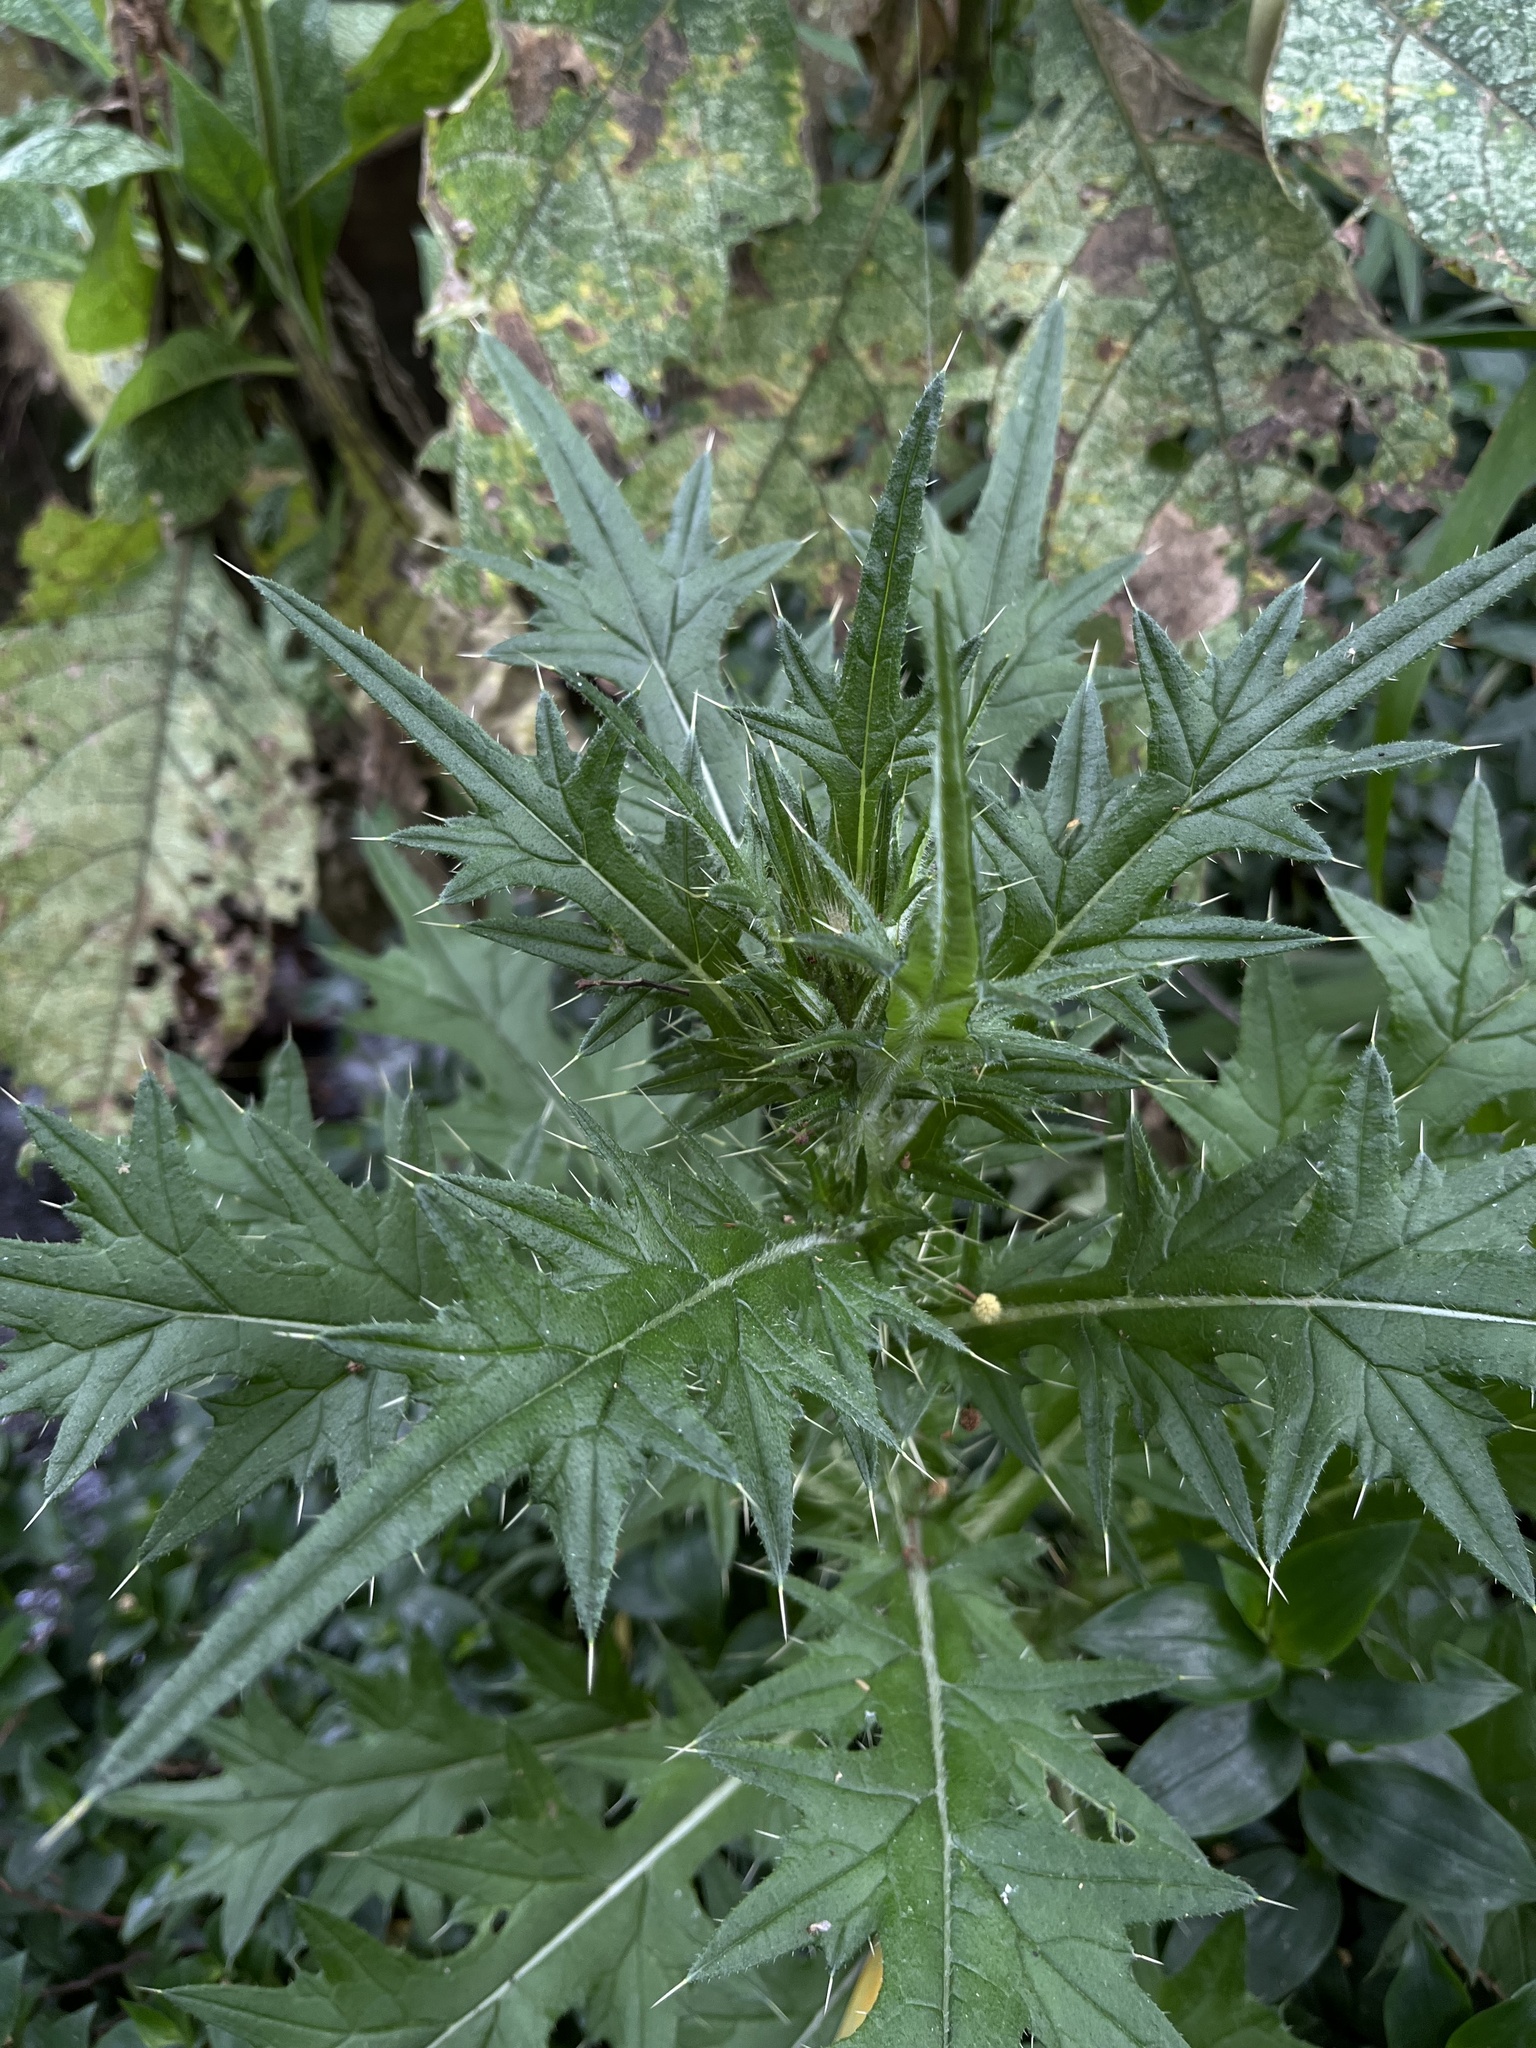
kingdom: Plantae
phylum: Tracheophyta
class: Magnoliopsida
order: Asterales
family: Asteraceae
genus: Cirsium
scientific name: Cirsium vulgare
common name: Bull thistle
